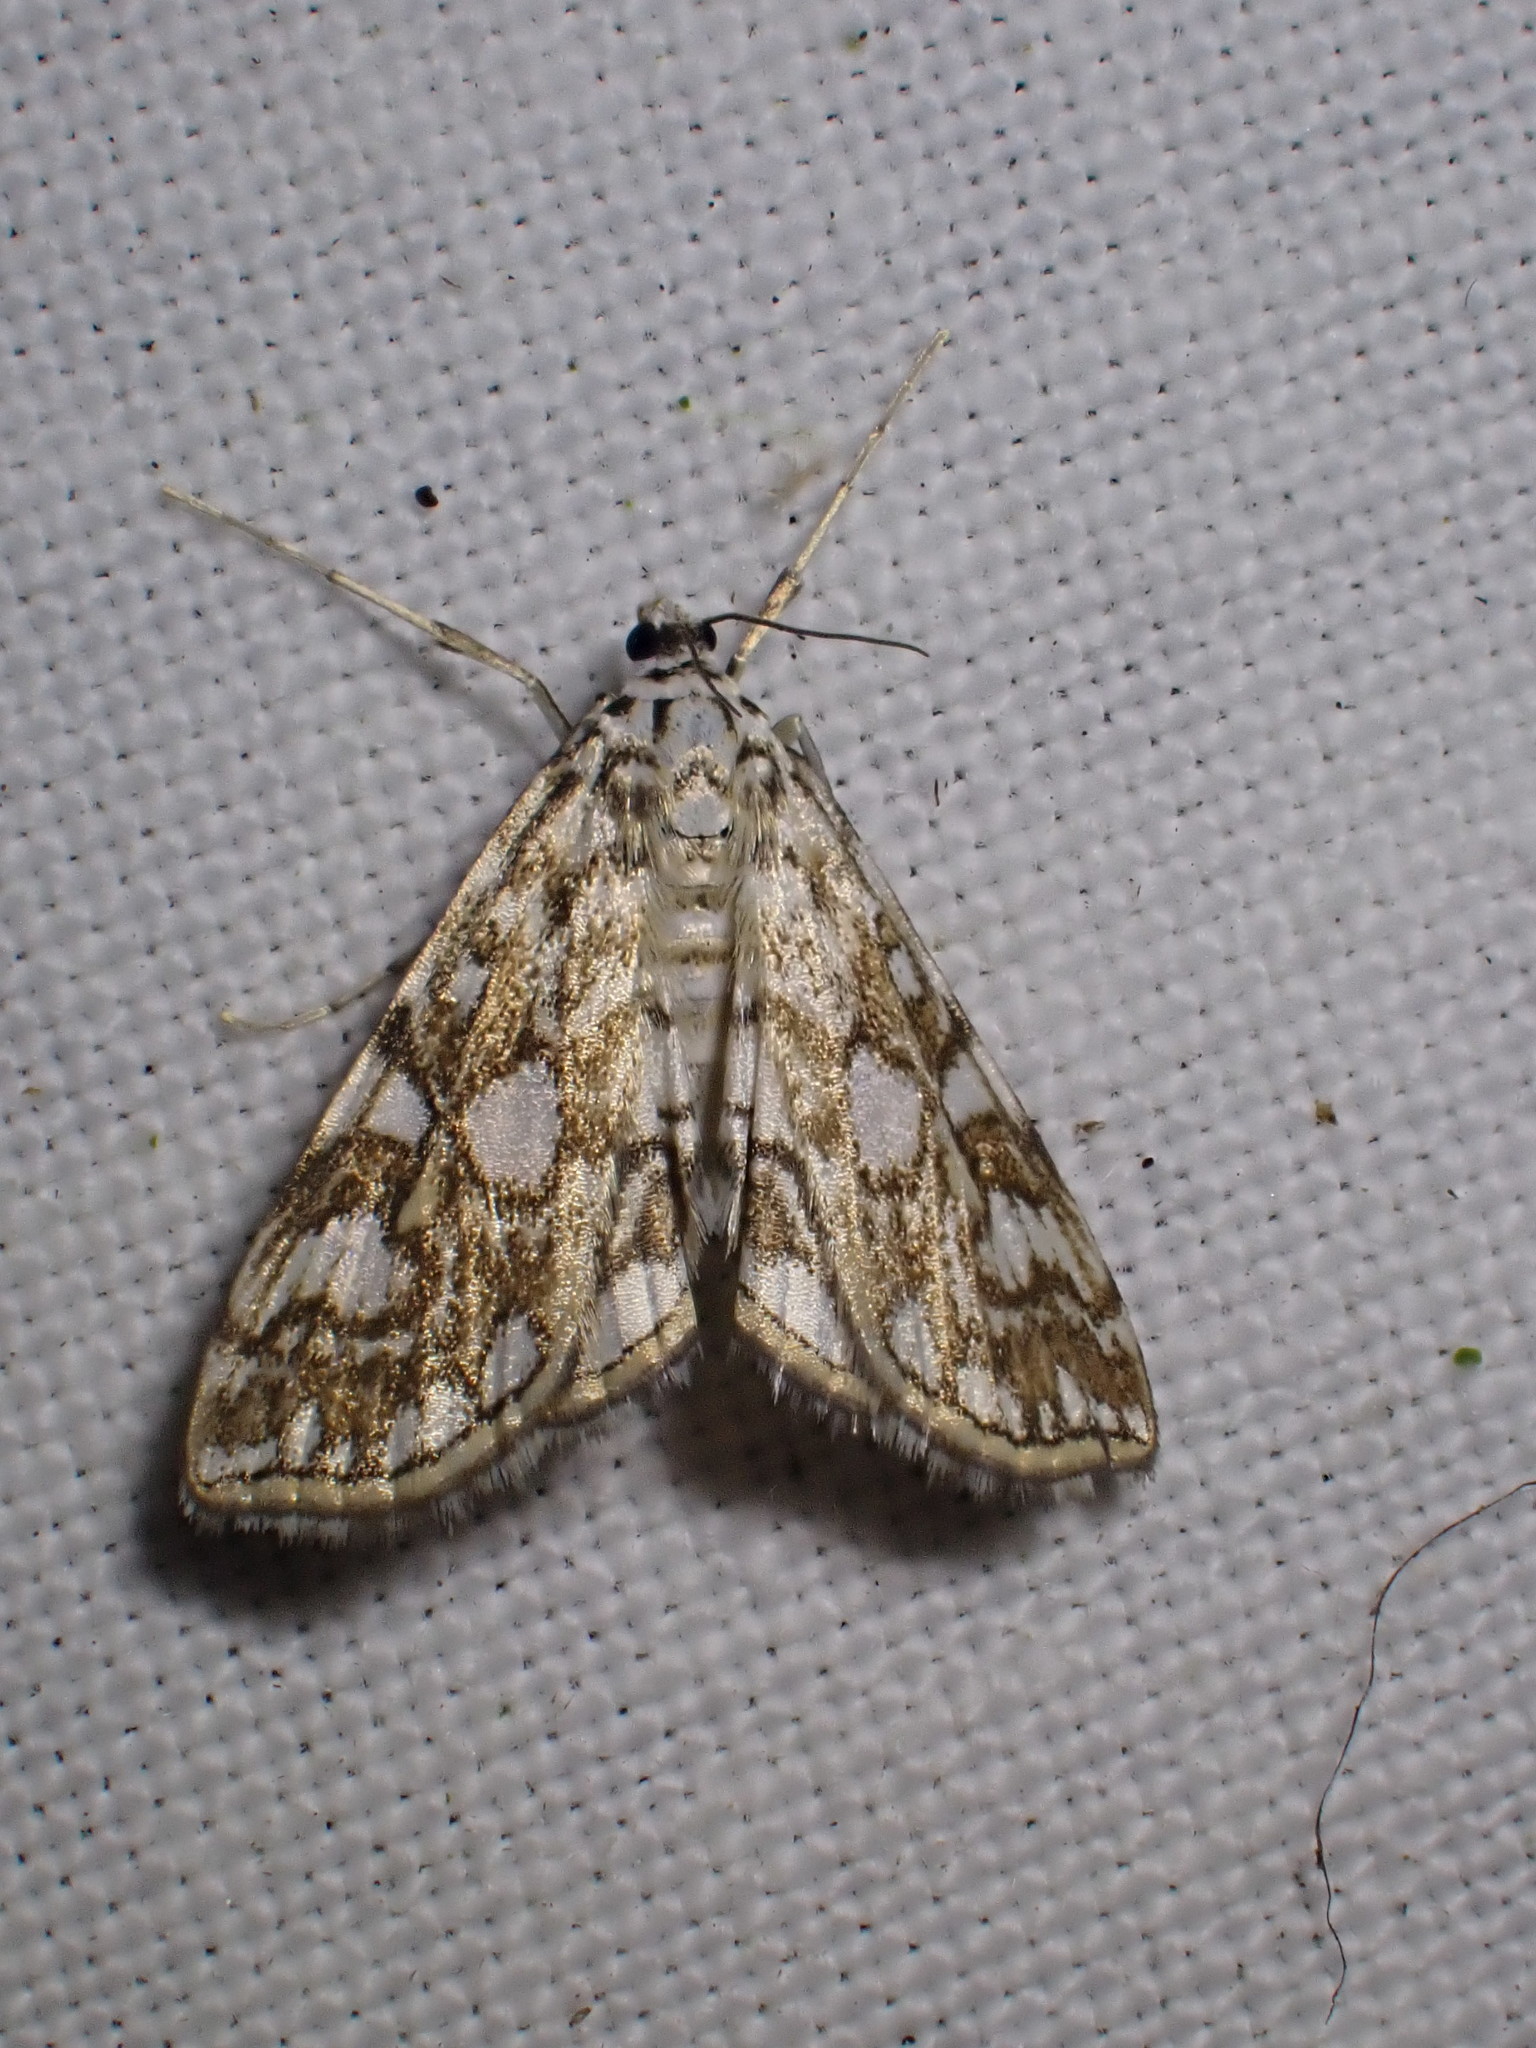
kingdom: Animalia
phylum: Arthropoda
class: Insecta
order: Lepidoptera
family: Crambidae
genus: Elophila
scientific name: Elophila nymphaeata
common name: Brown china-mark
